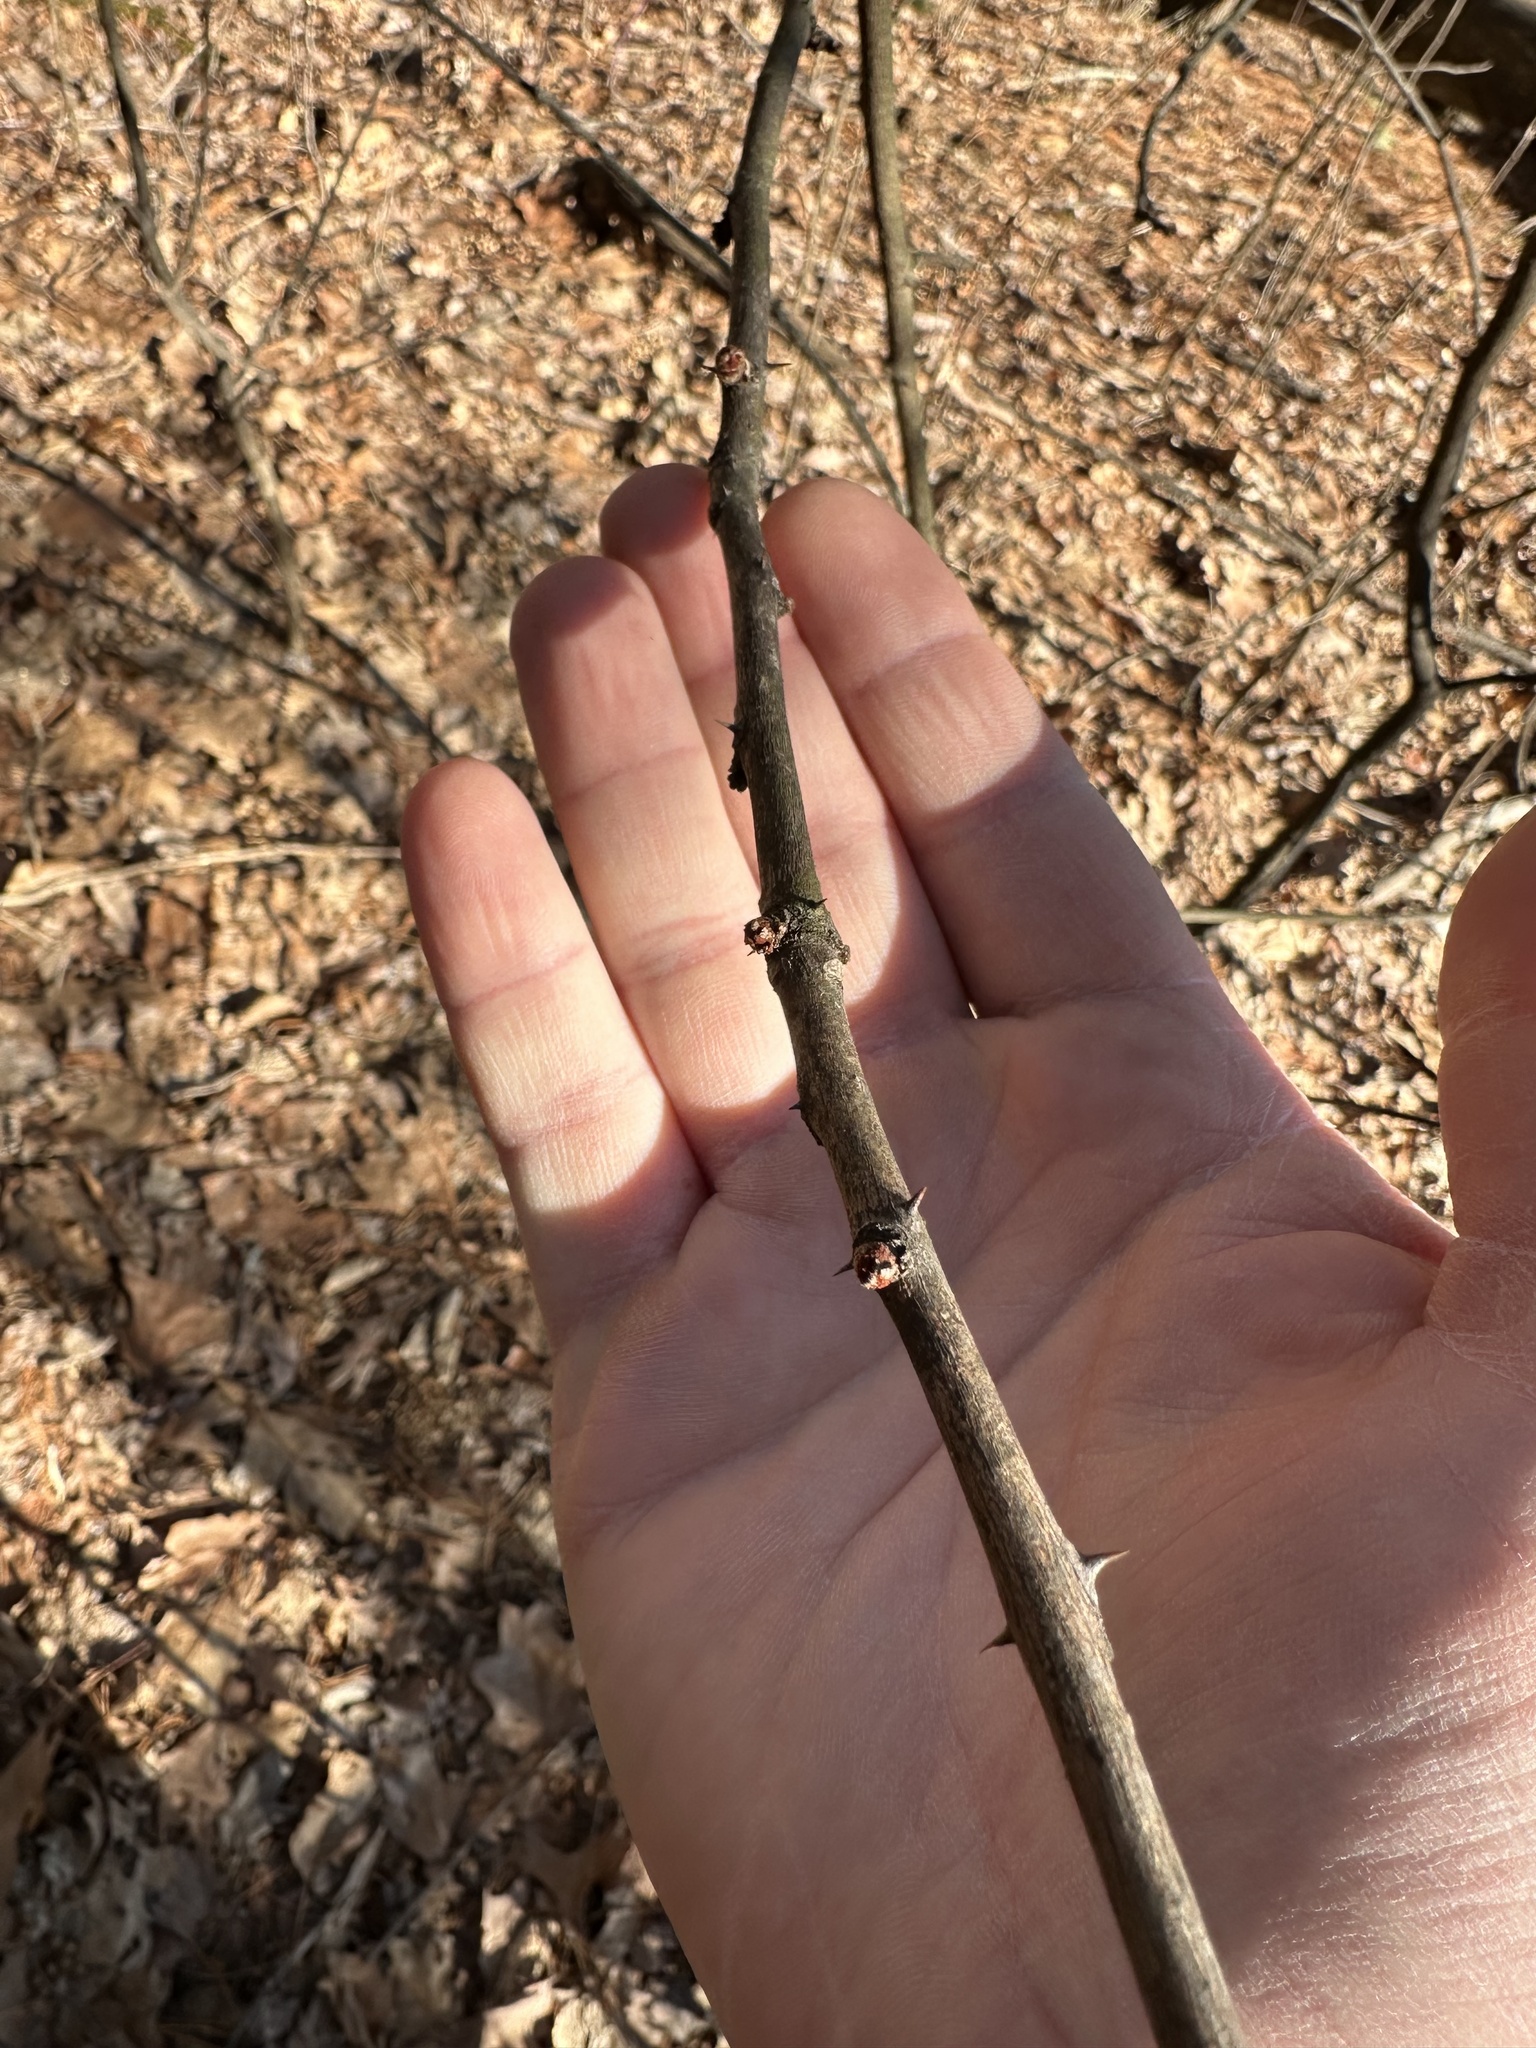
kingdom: Plantae
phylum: Tracheophyta
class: Magnoliopsida
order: Sapindales
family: Rutaceae
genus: Zanthoxylum
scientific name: Zanthoxylum americanum
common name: Northern prickly-ash
